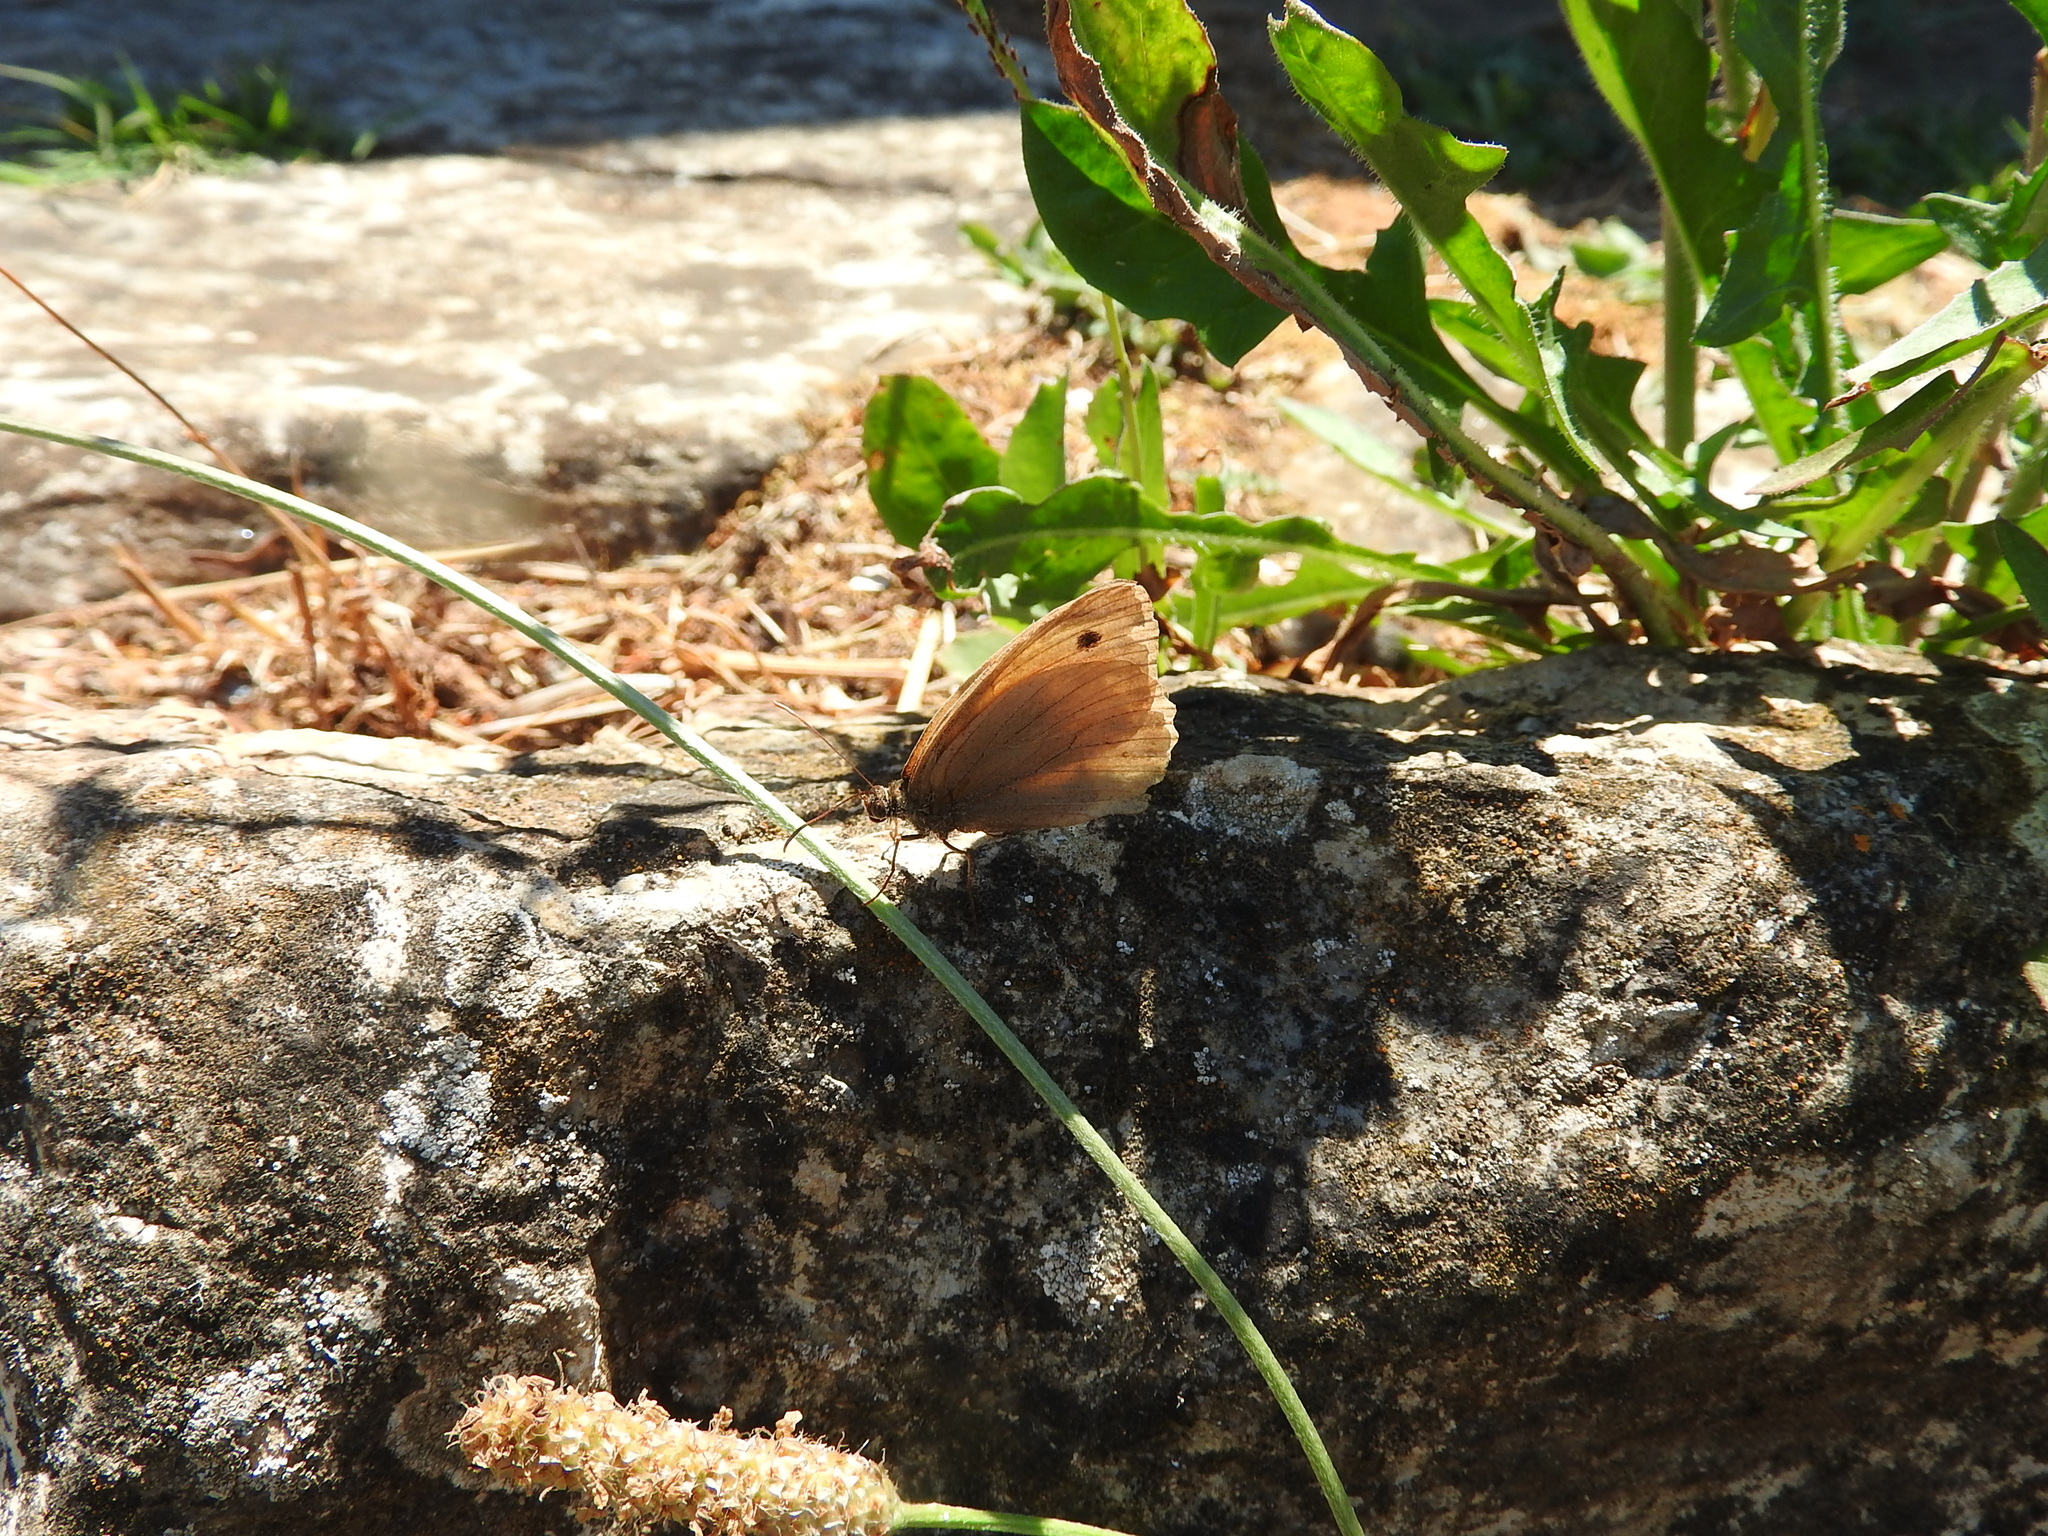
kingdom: Animalia
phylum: Arthropoda
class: Insecta
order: Lepidoptera
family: Nymphalidae
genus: Maniola
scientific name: Maniola jurtina
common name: Meadow brown
